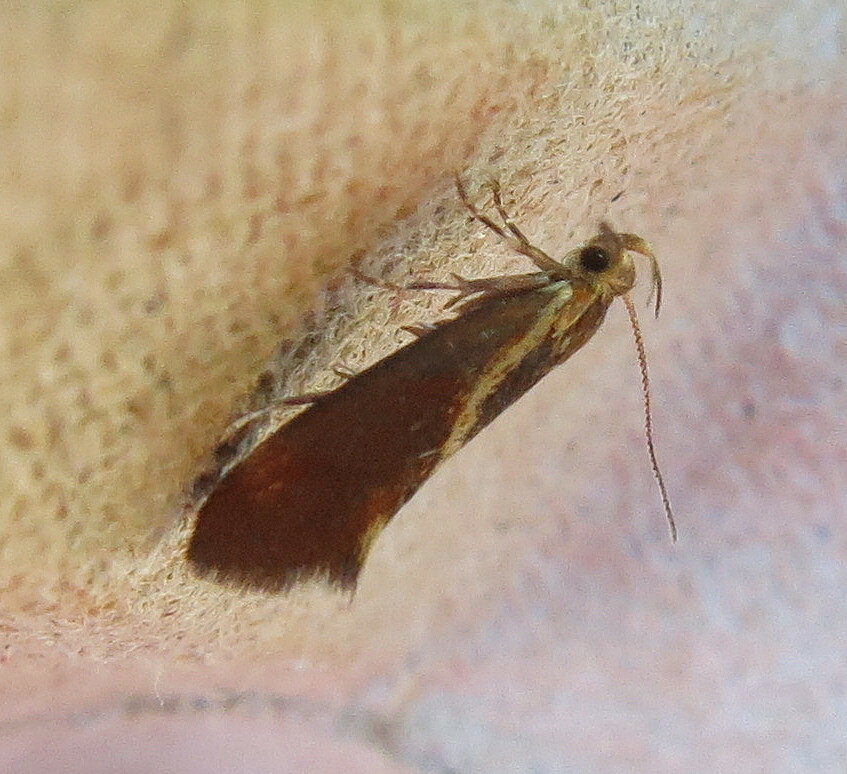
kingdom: Animalia
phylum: Arthropoda
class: Insecta
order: Lepidoptera
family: Oecophoridae
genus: Borkhausenia
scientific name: Borkhausenia italica
